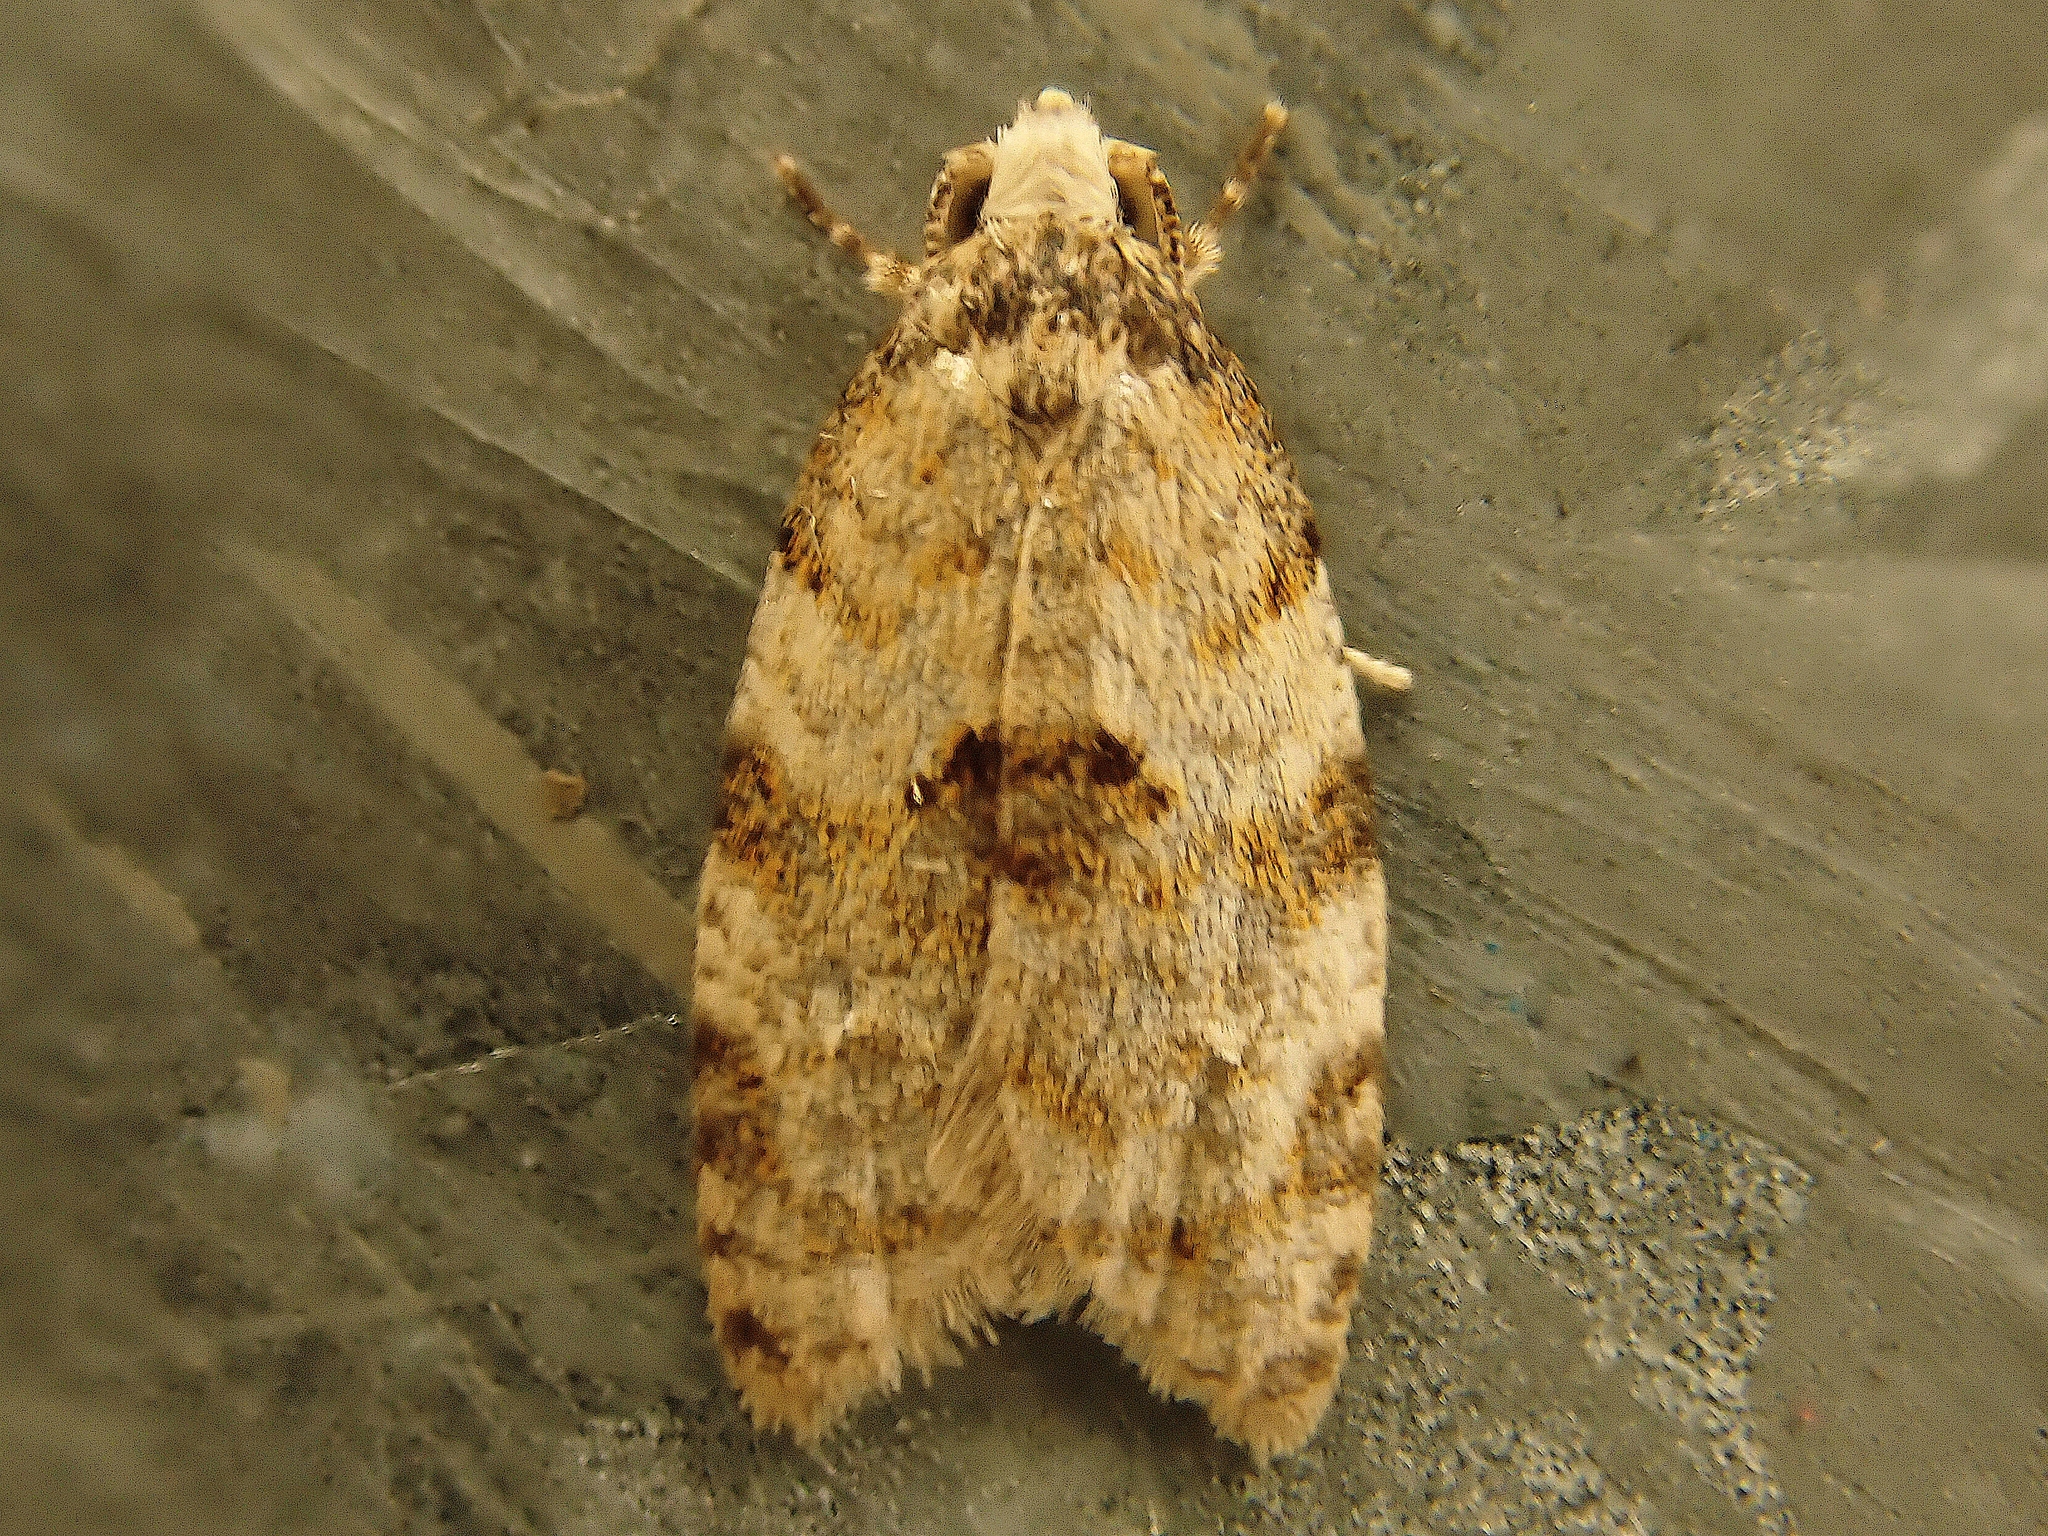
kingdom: Animalia
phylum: Arthropoda
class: Insecta
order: Lepidoptera
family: Tortricidae
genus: Dipterina
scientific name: Dipterina imbriferana
